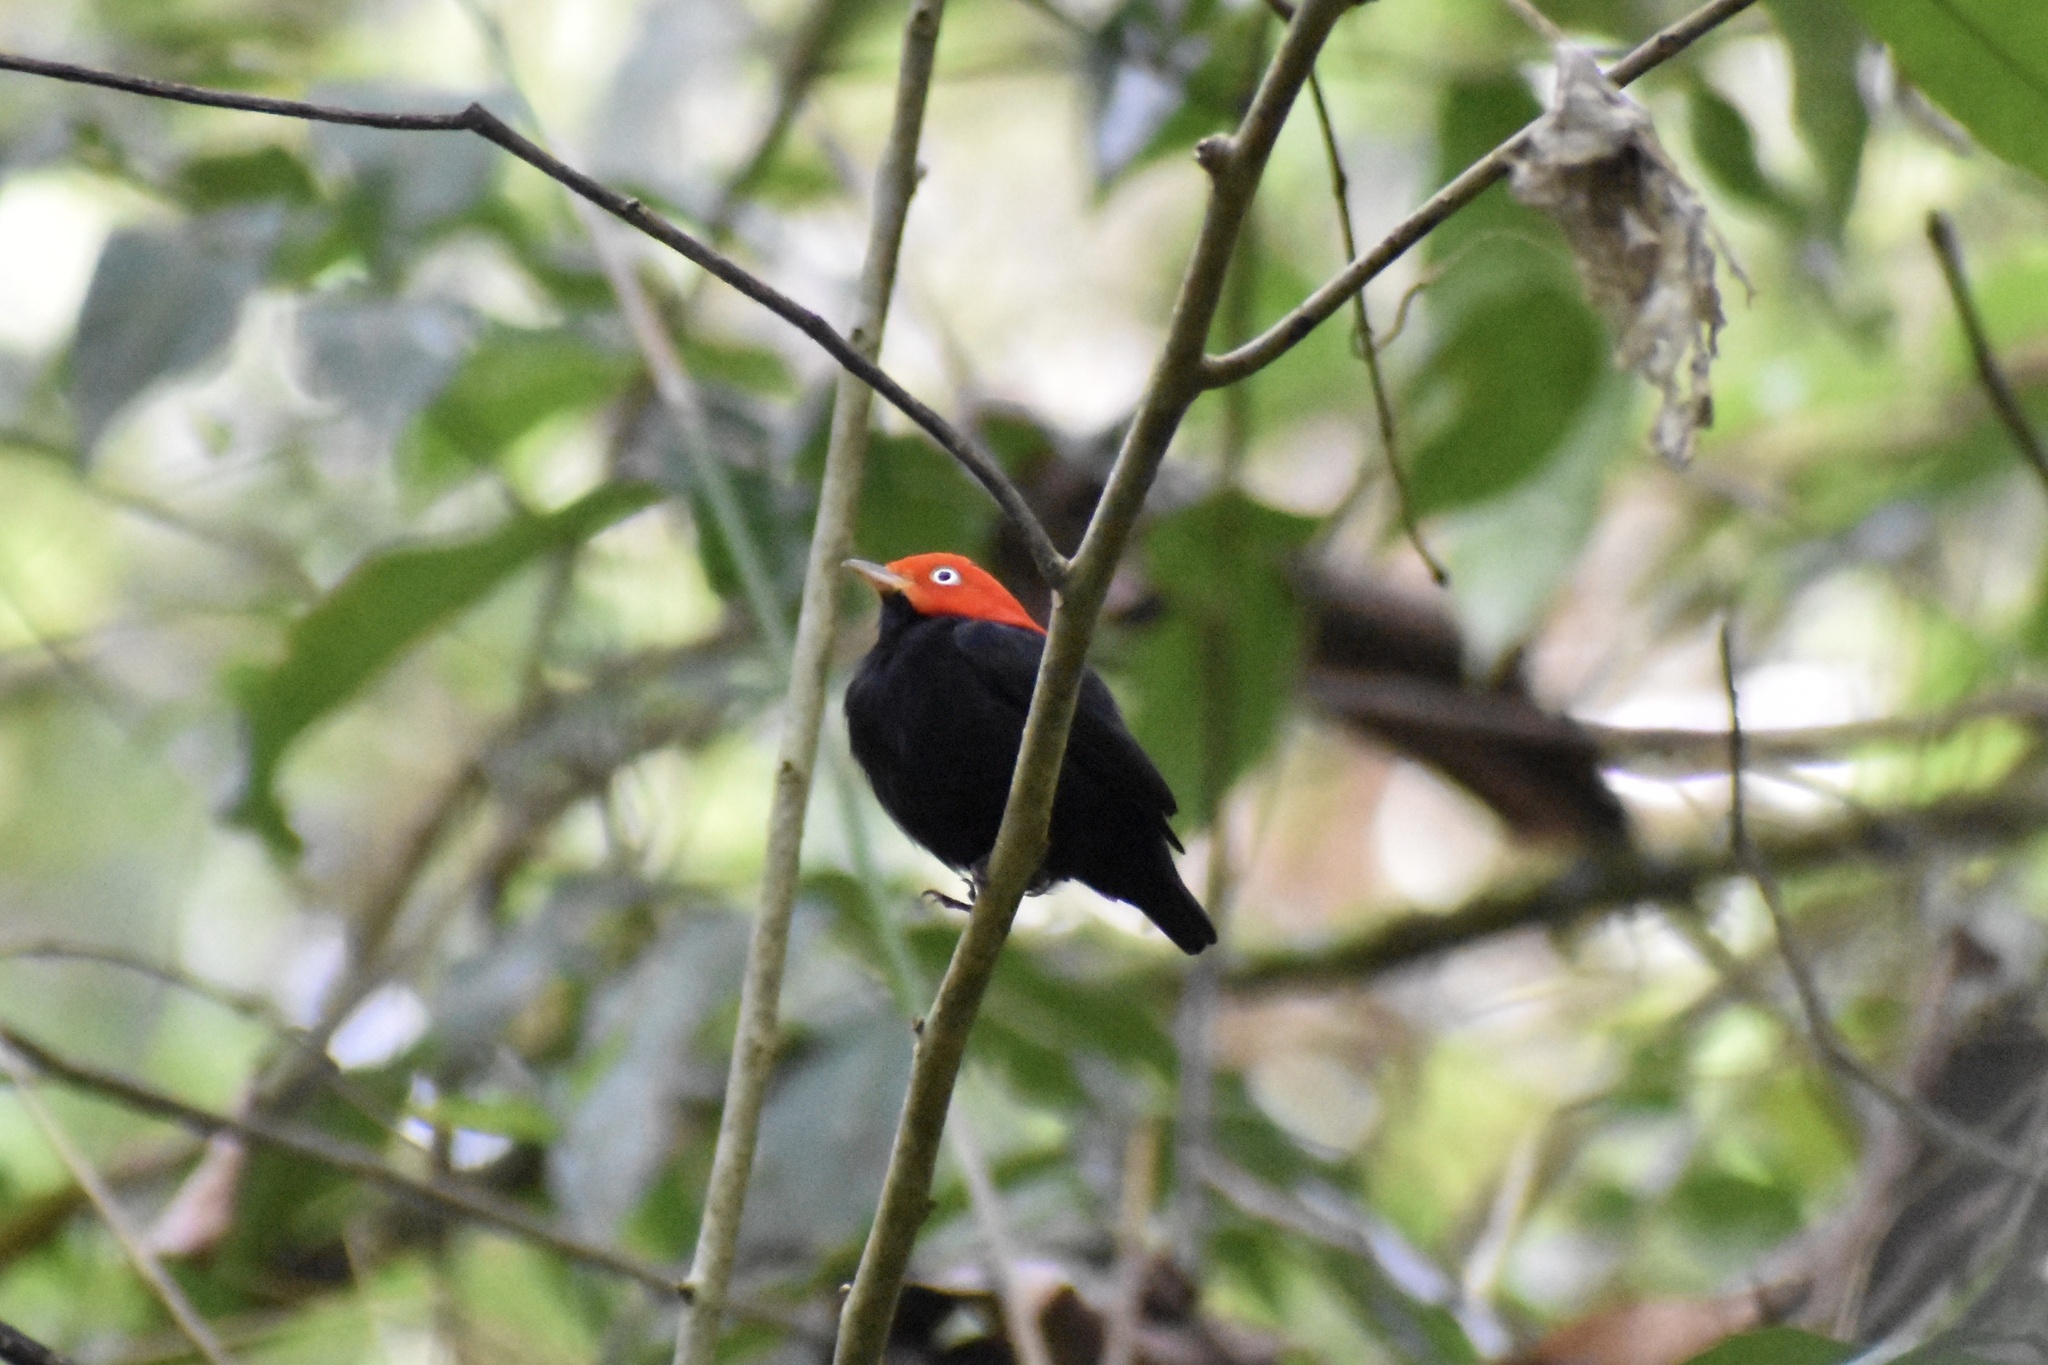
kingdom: Animalia
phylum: Chordata
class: Aves
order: Passeriformes
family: Pipridae
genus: Pipra
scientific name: Pipra mentalis
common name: Red-capped manakin
